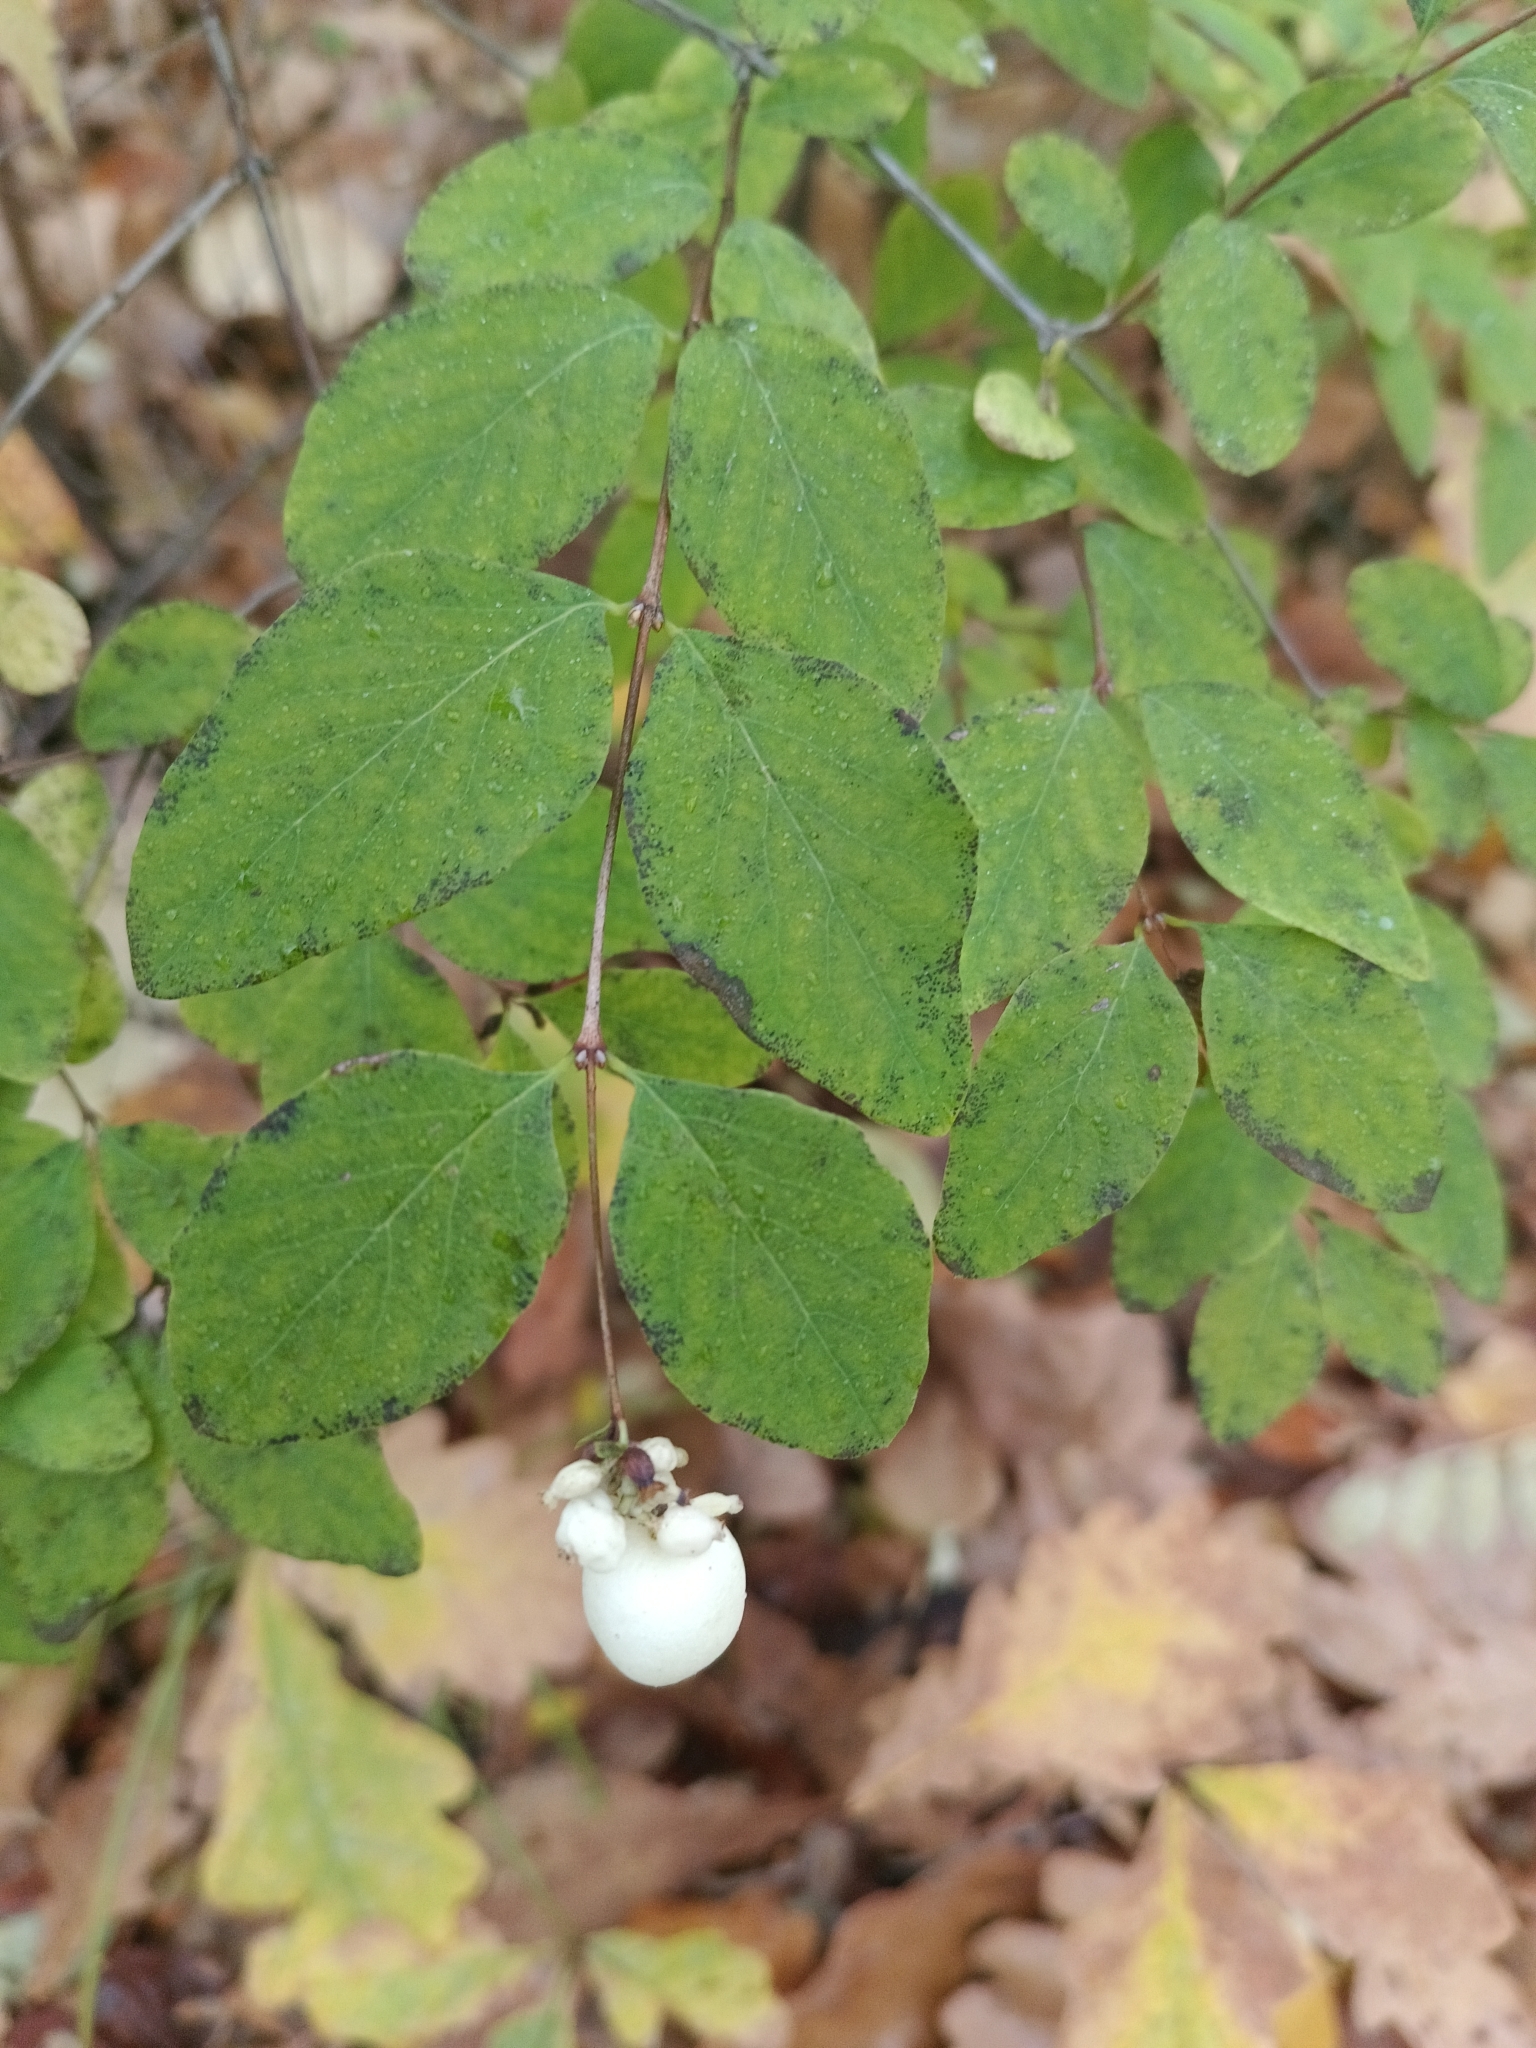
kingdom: Plantae
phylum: Tracheophyta
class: Magnoliopsida
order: Dipsacales
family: Caprifoliaceae
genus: Symphoricarpos
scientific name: Symphoricarpos albus
